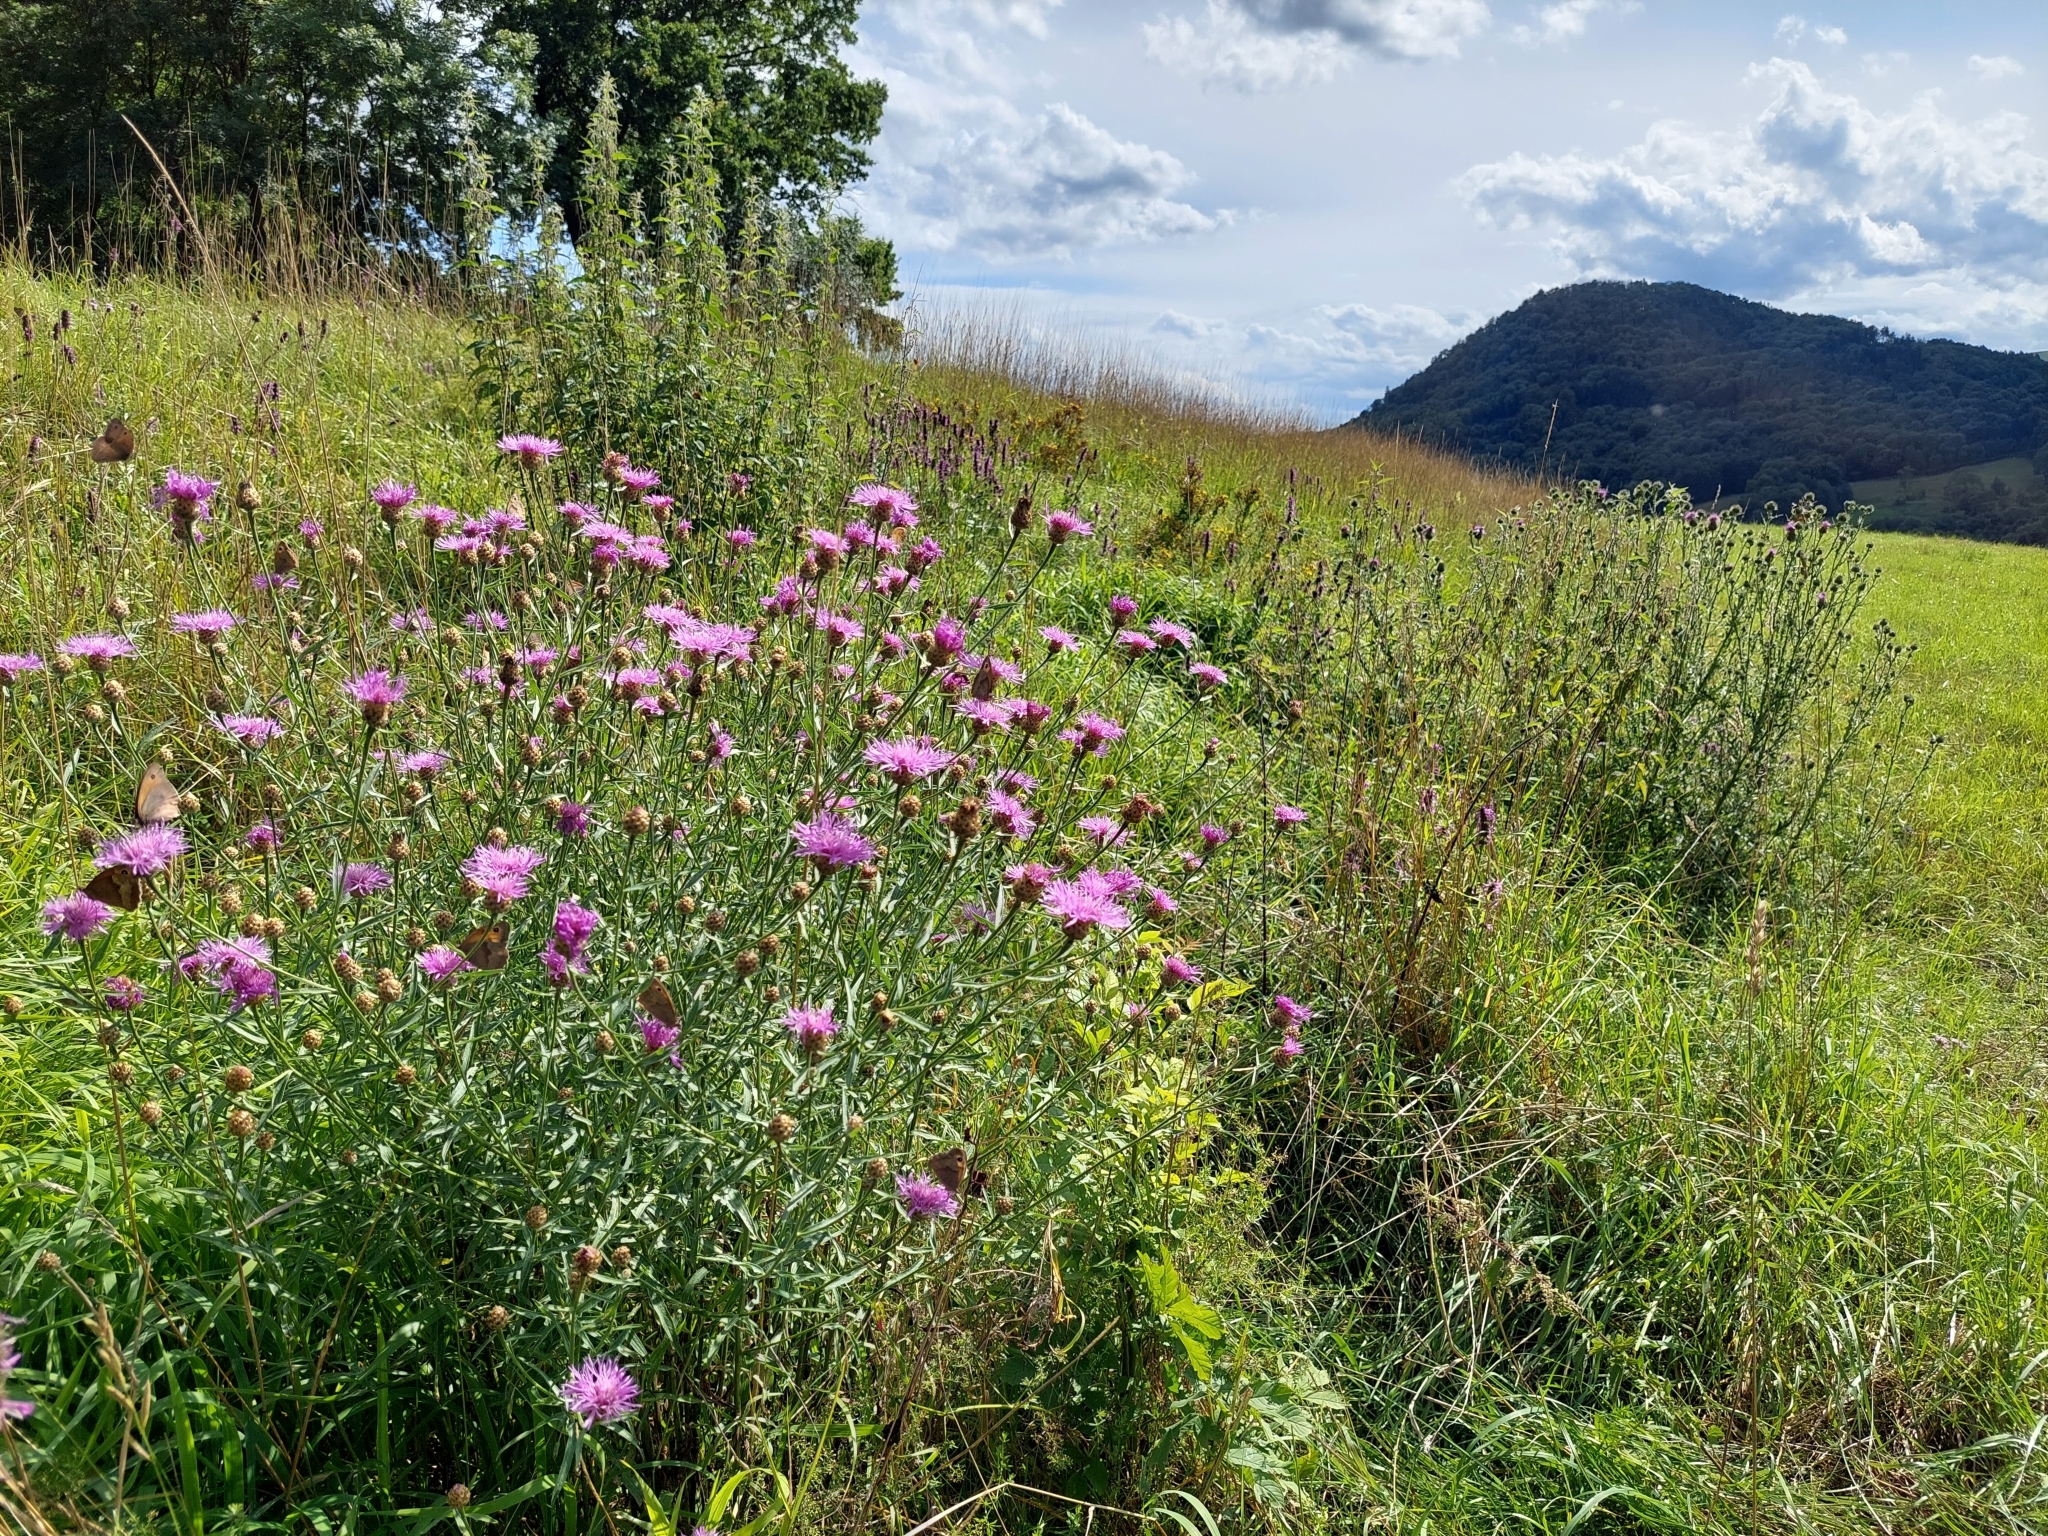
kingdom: Plantae
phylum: Tracheophyta
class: Magnoliopsida
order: Asterales
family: Asteraceae
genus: Centaurea
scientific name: Centaurea jacea
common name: Brown knapweed
